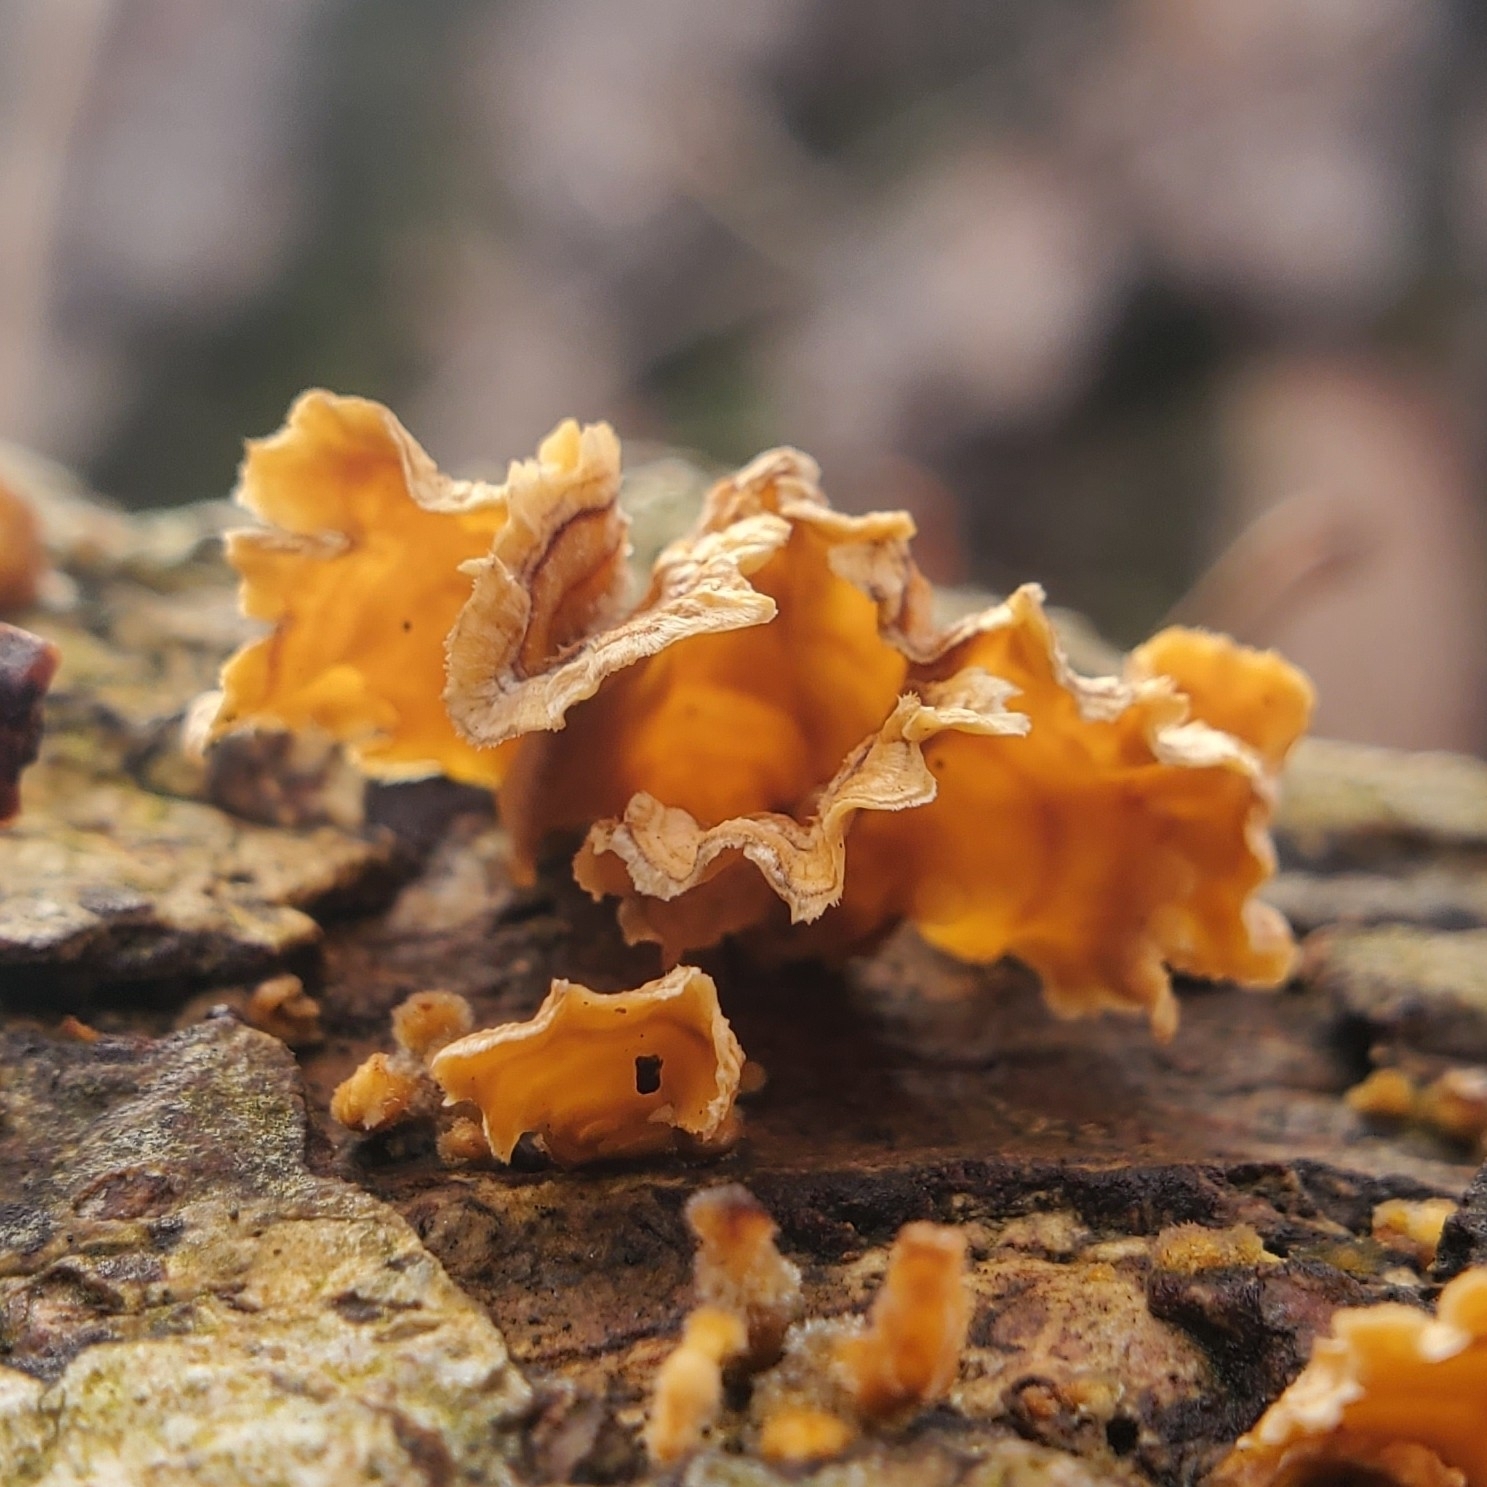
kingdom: Fungi
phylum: Basidiomycota
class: Agaricomycetes
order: Russulales
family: Stereaceae
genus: Stereum
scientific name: Stereum complicatum
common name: Crowded parchment
